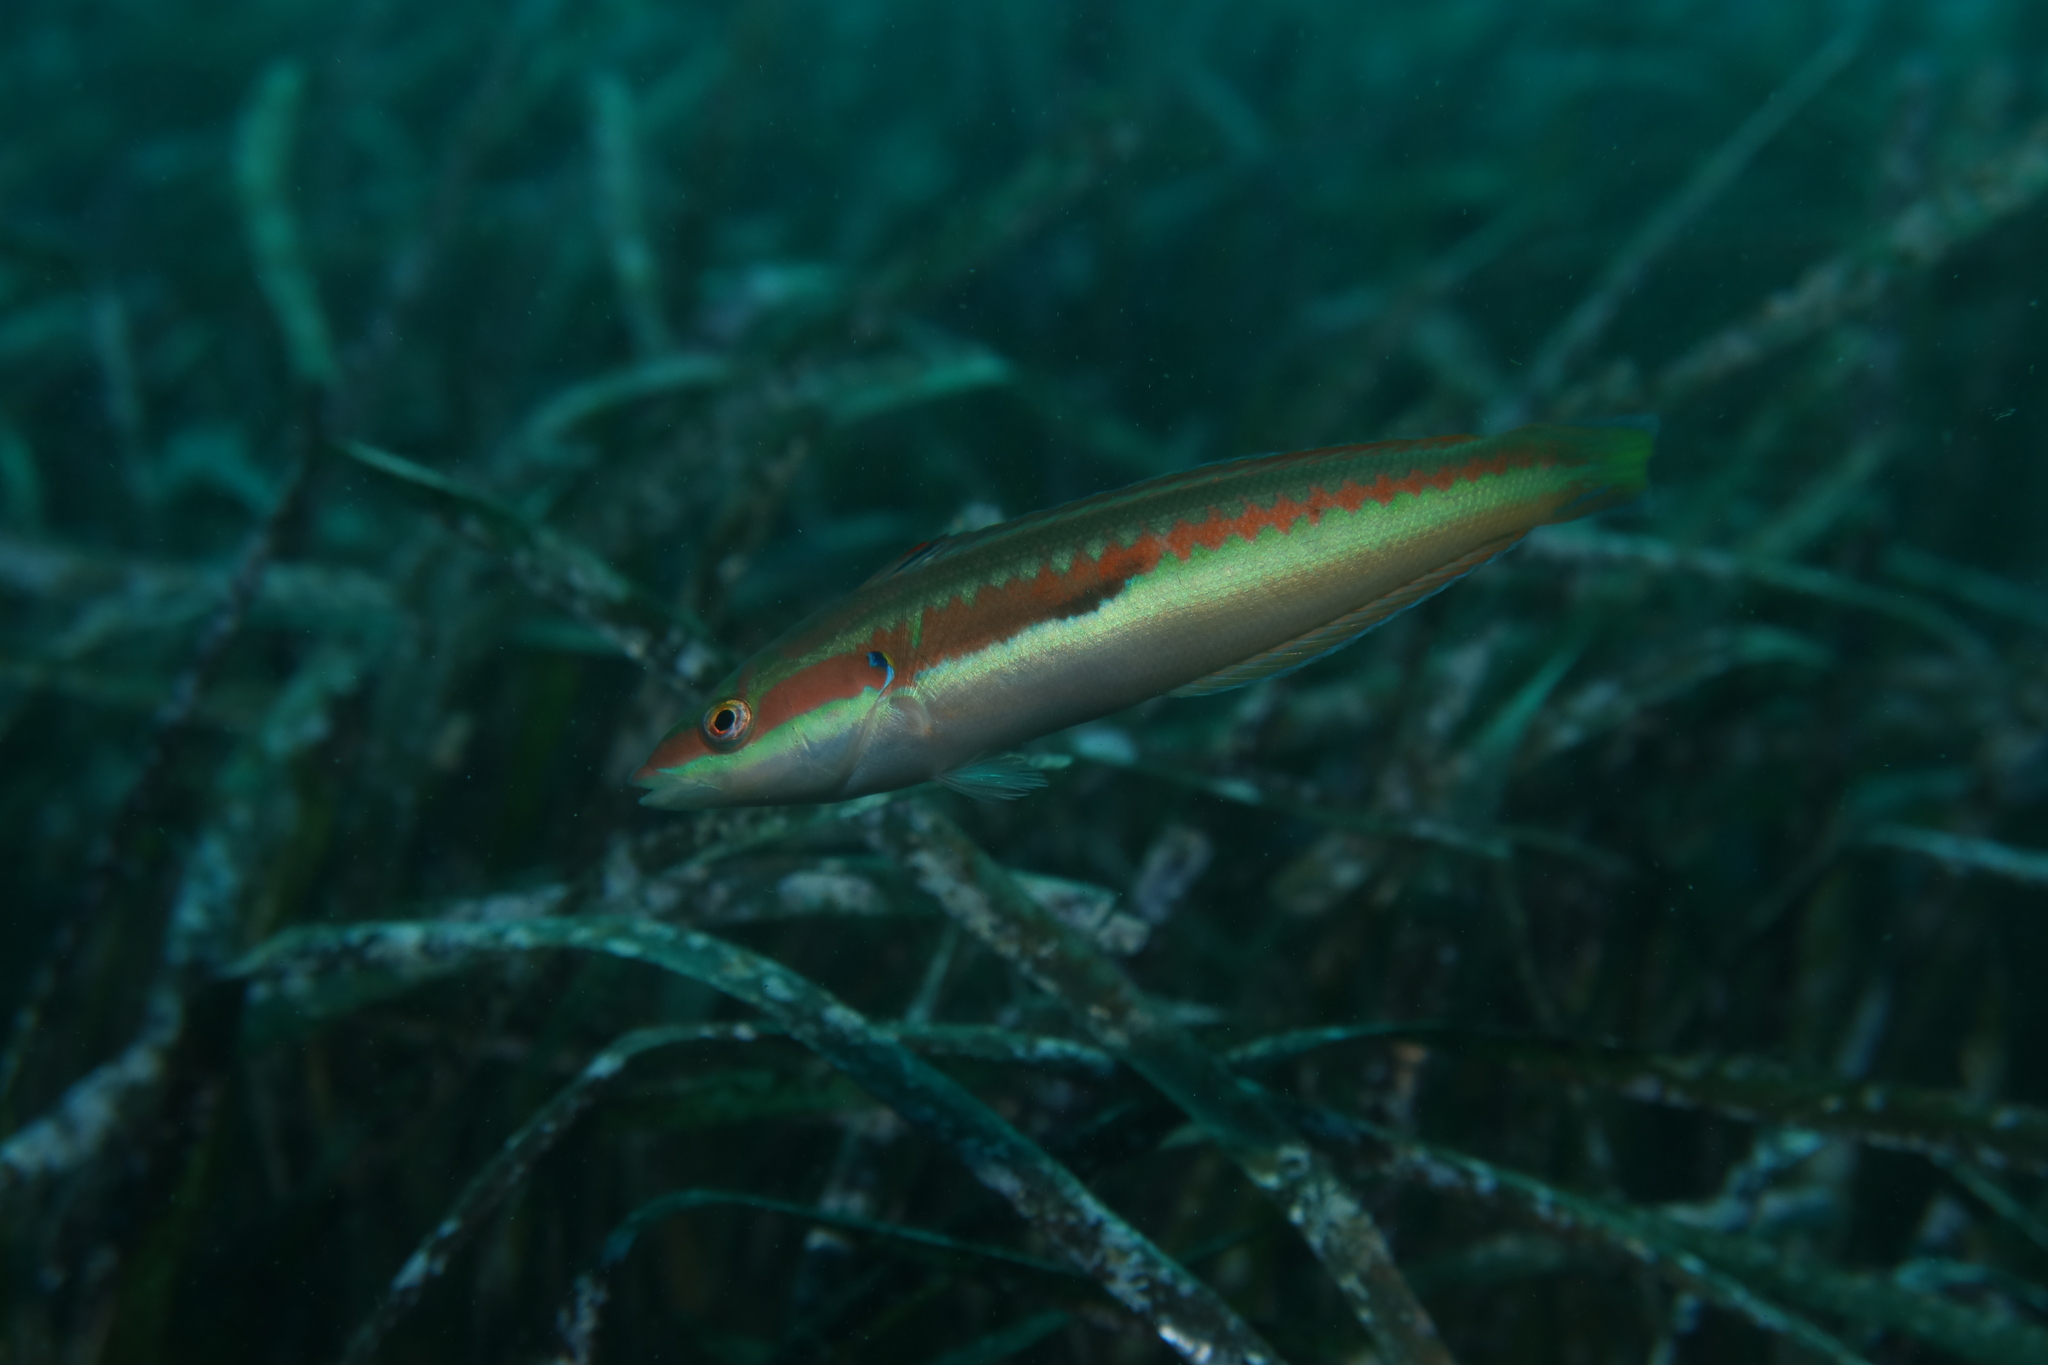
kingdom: Animalia
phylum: Chordata
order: Perciformes
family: Labridae
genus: Coris
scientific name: Coris julis
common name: Rainbow wrasse
